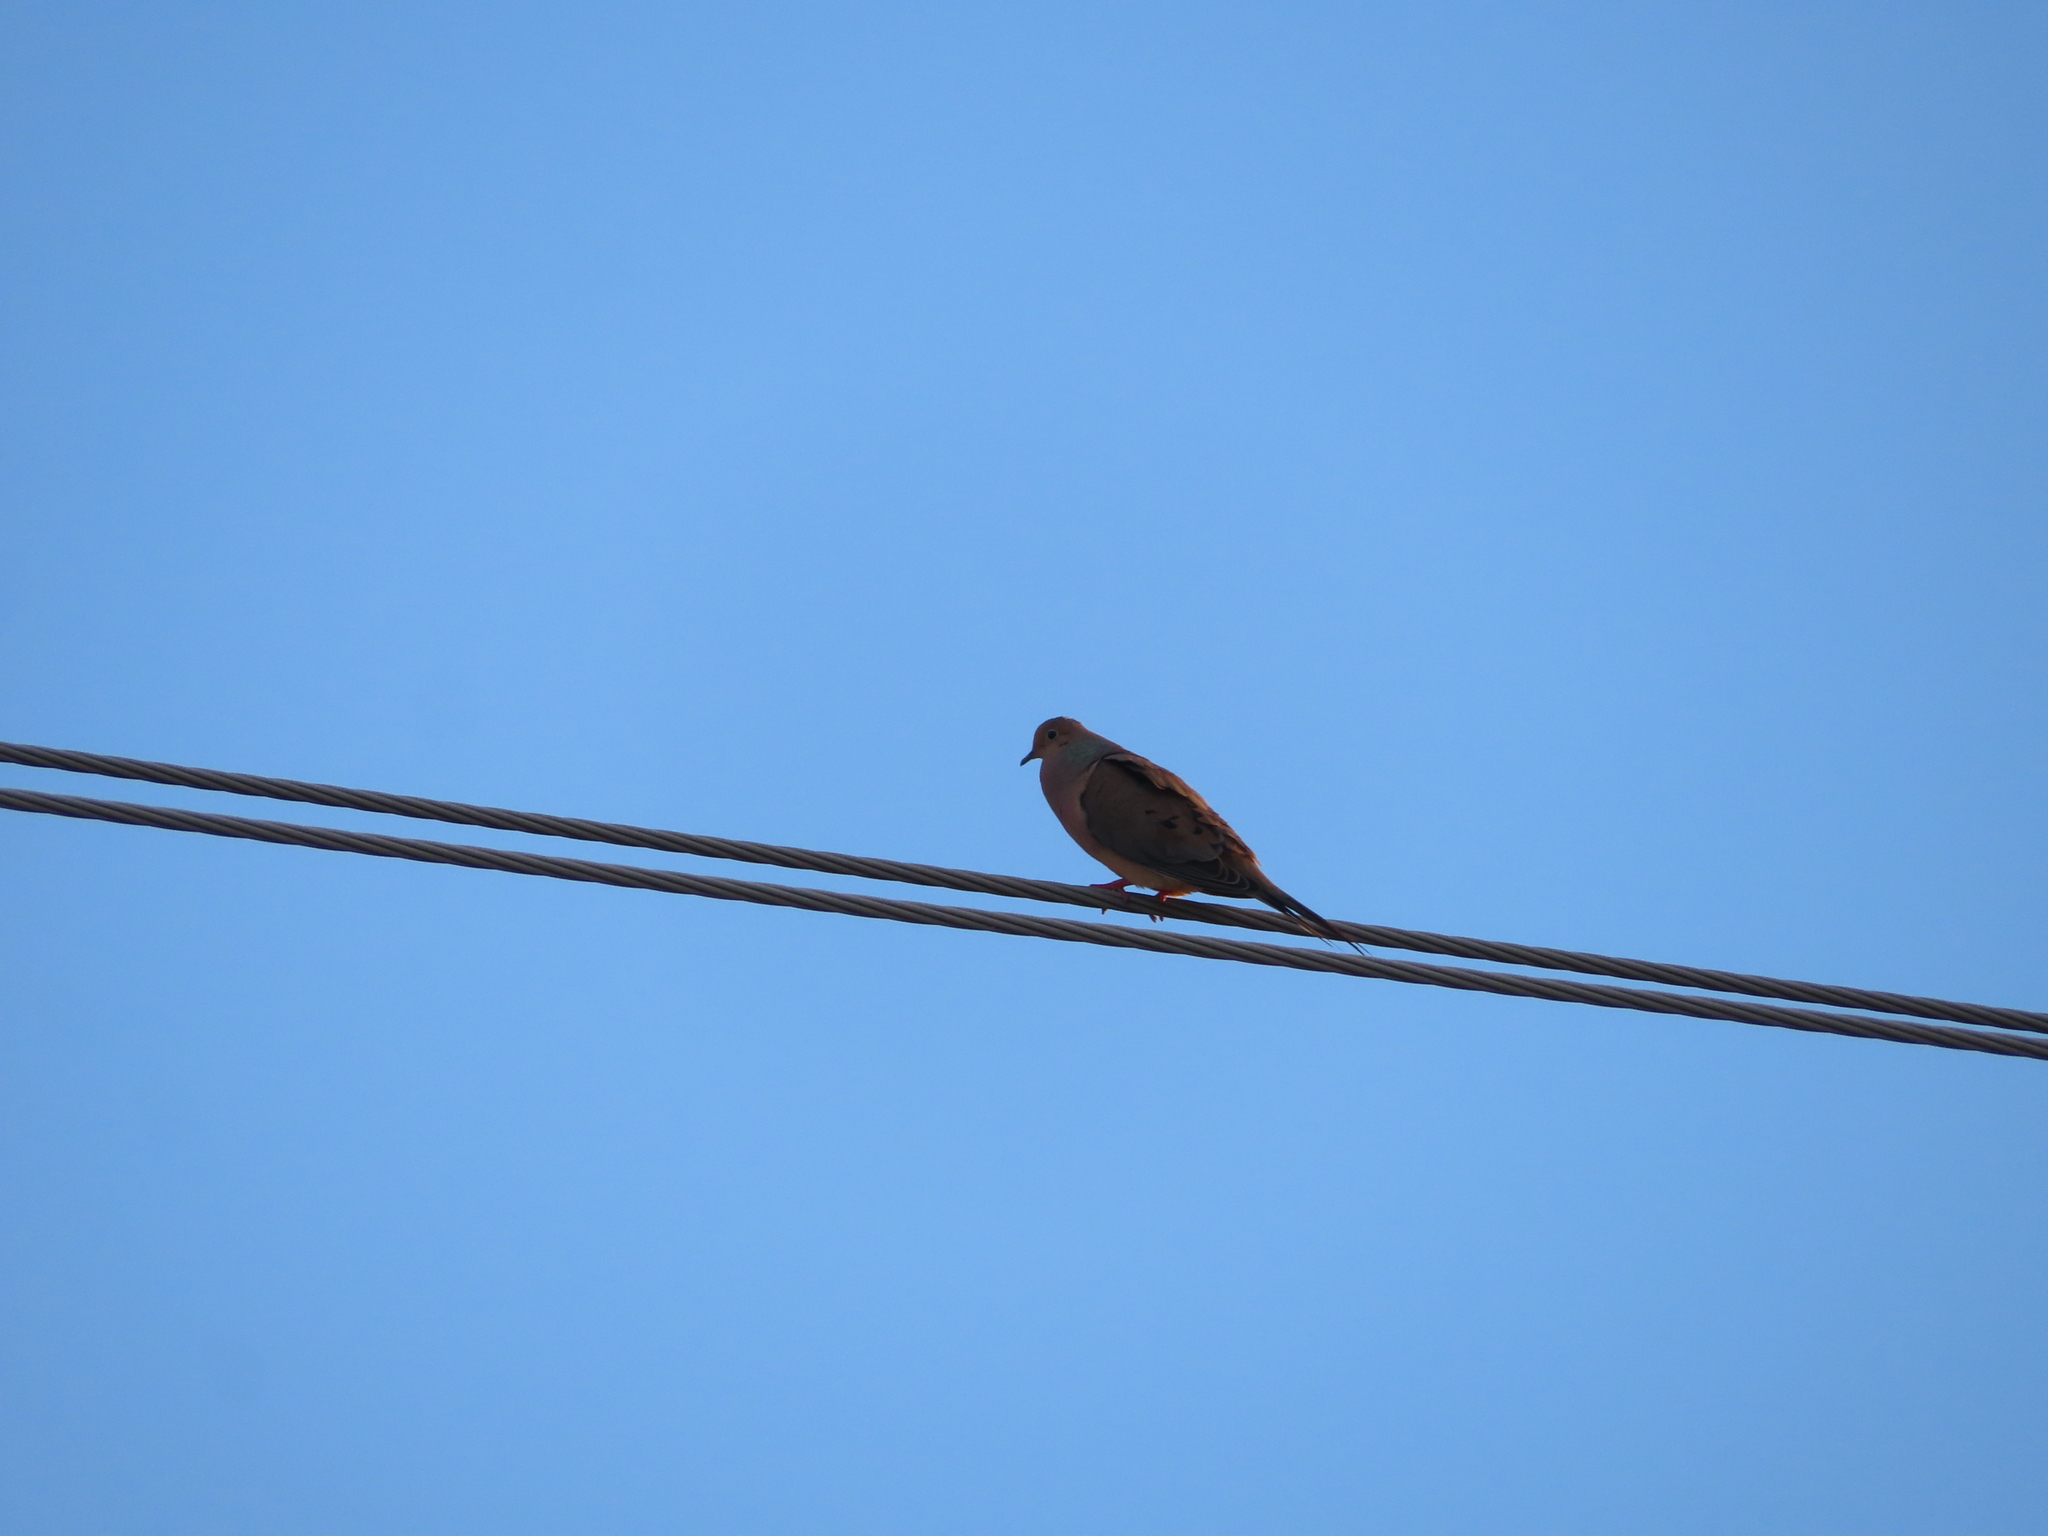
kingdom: Animalia
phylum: Chordata
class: Aves
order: Columbiformes
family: Columbidae
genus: Zenaida
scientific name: Zenaida macroura
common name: Mourning dove
